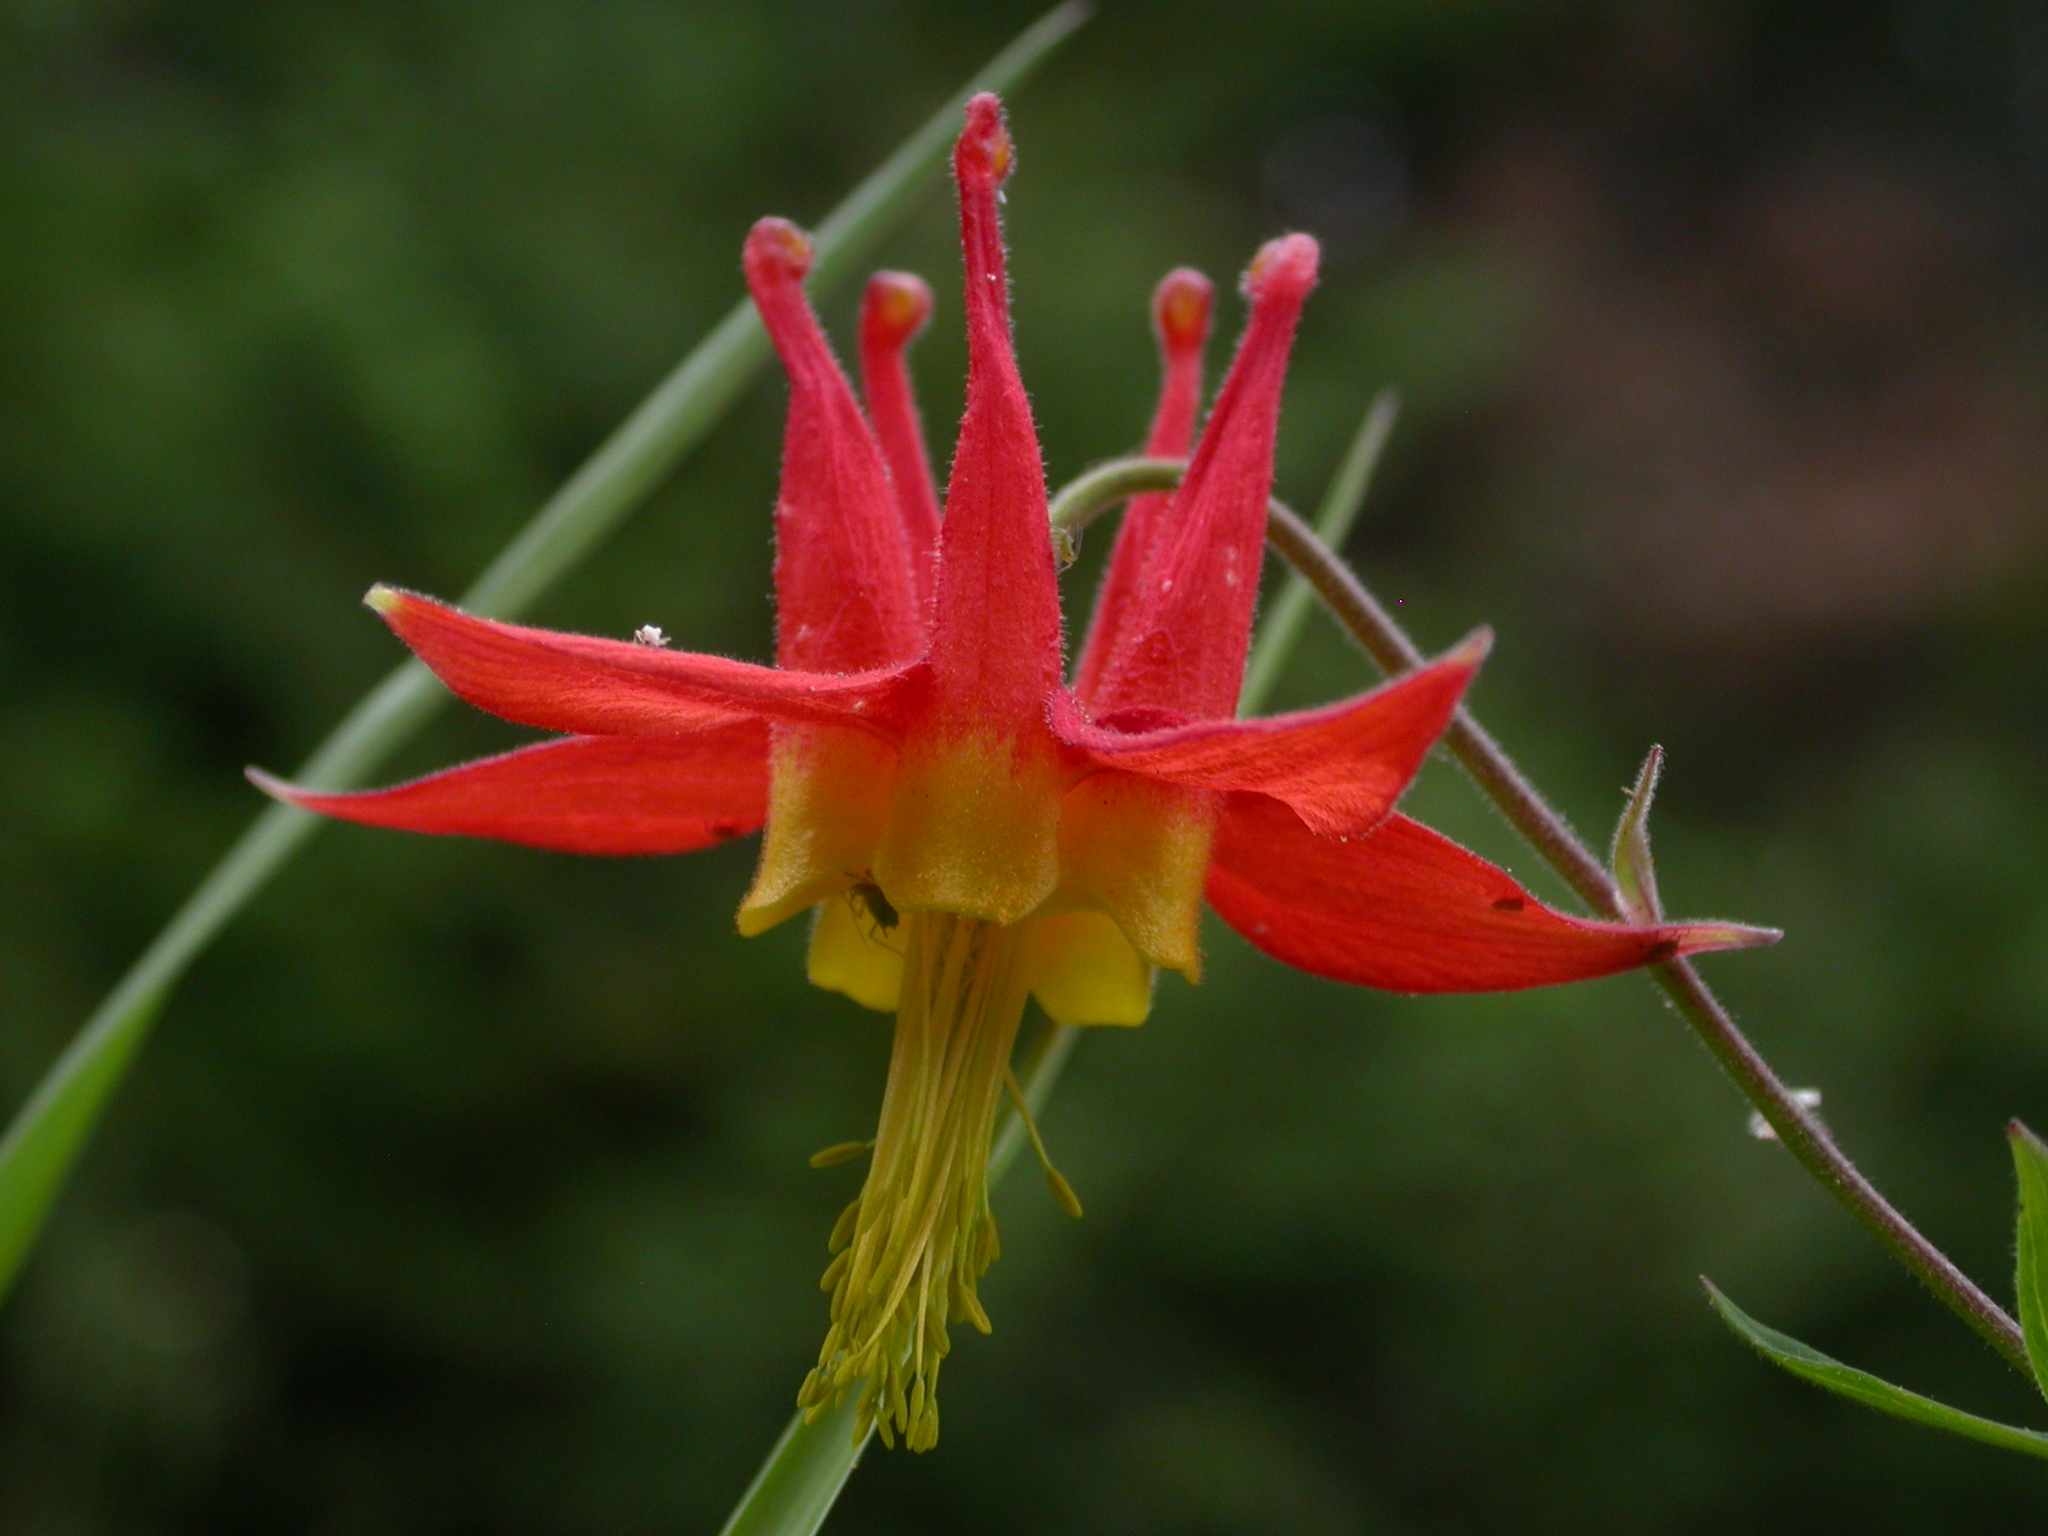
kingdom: Plantae
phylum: Tracheophyta
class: Magnoliopsida
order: Ranunculales
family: Ranunculaceae
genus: Aquilegia
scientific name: Aquilegia formosa
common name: Sitka columbine
